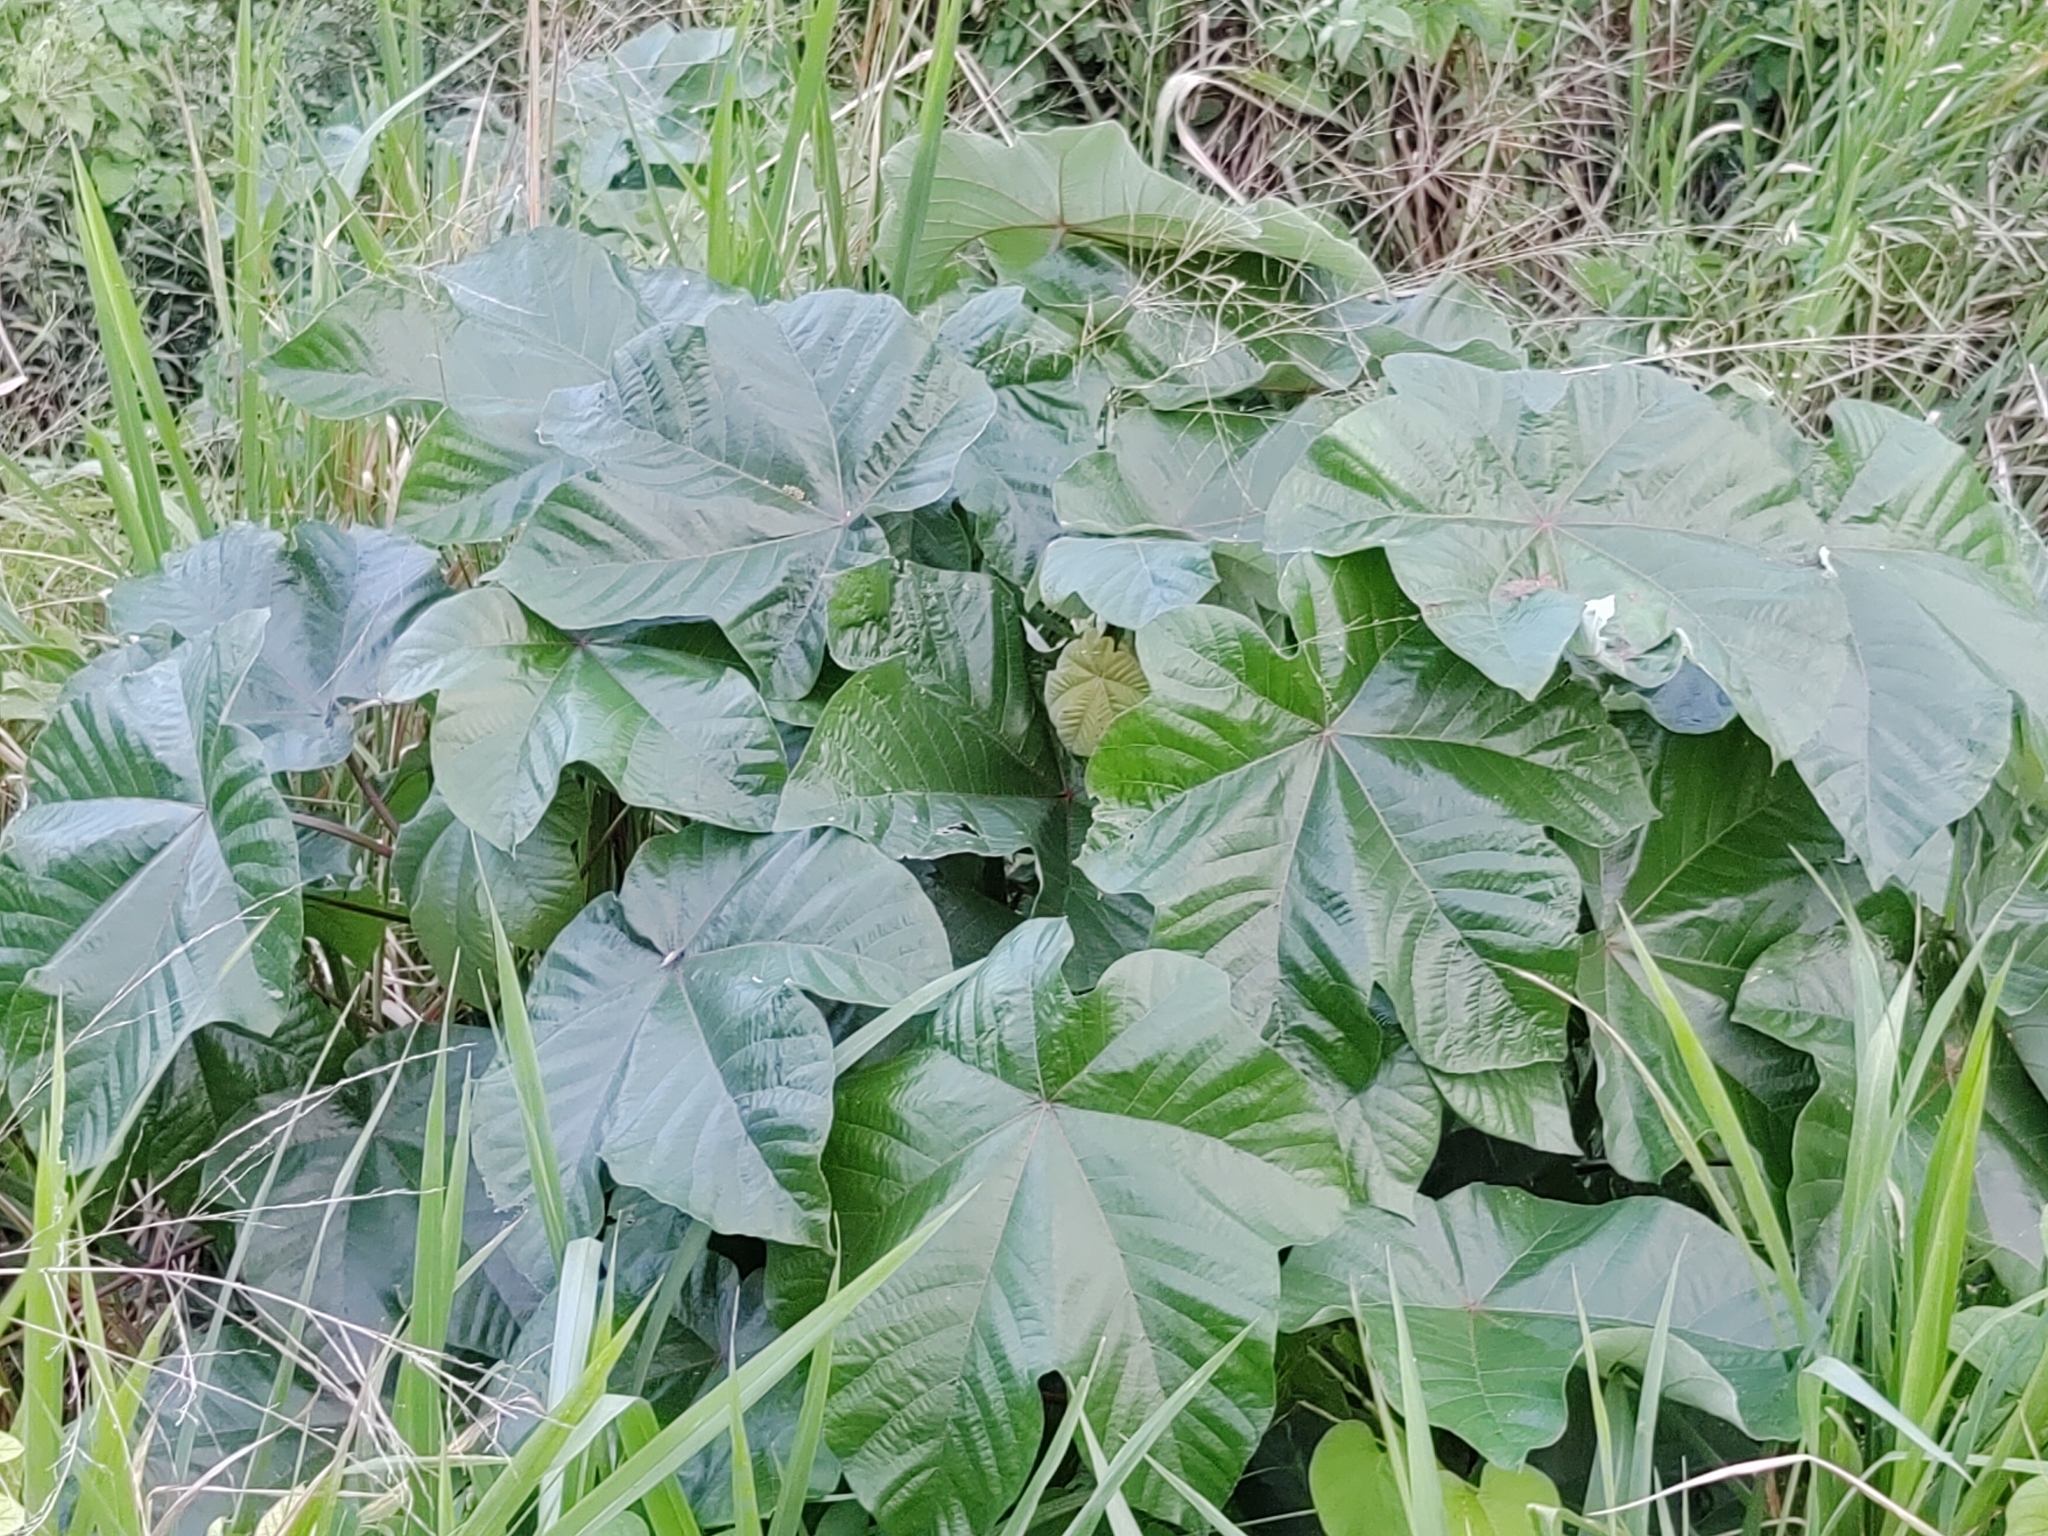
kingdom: Plantae
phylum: Tracheophyta
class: Magnoliopsida
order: Malvales
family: Malvaceae
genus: Sterculia
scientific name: Sterculia apetala
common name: Panama tree
